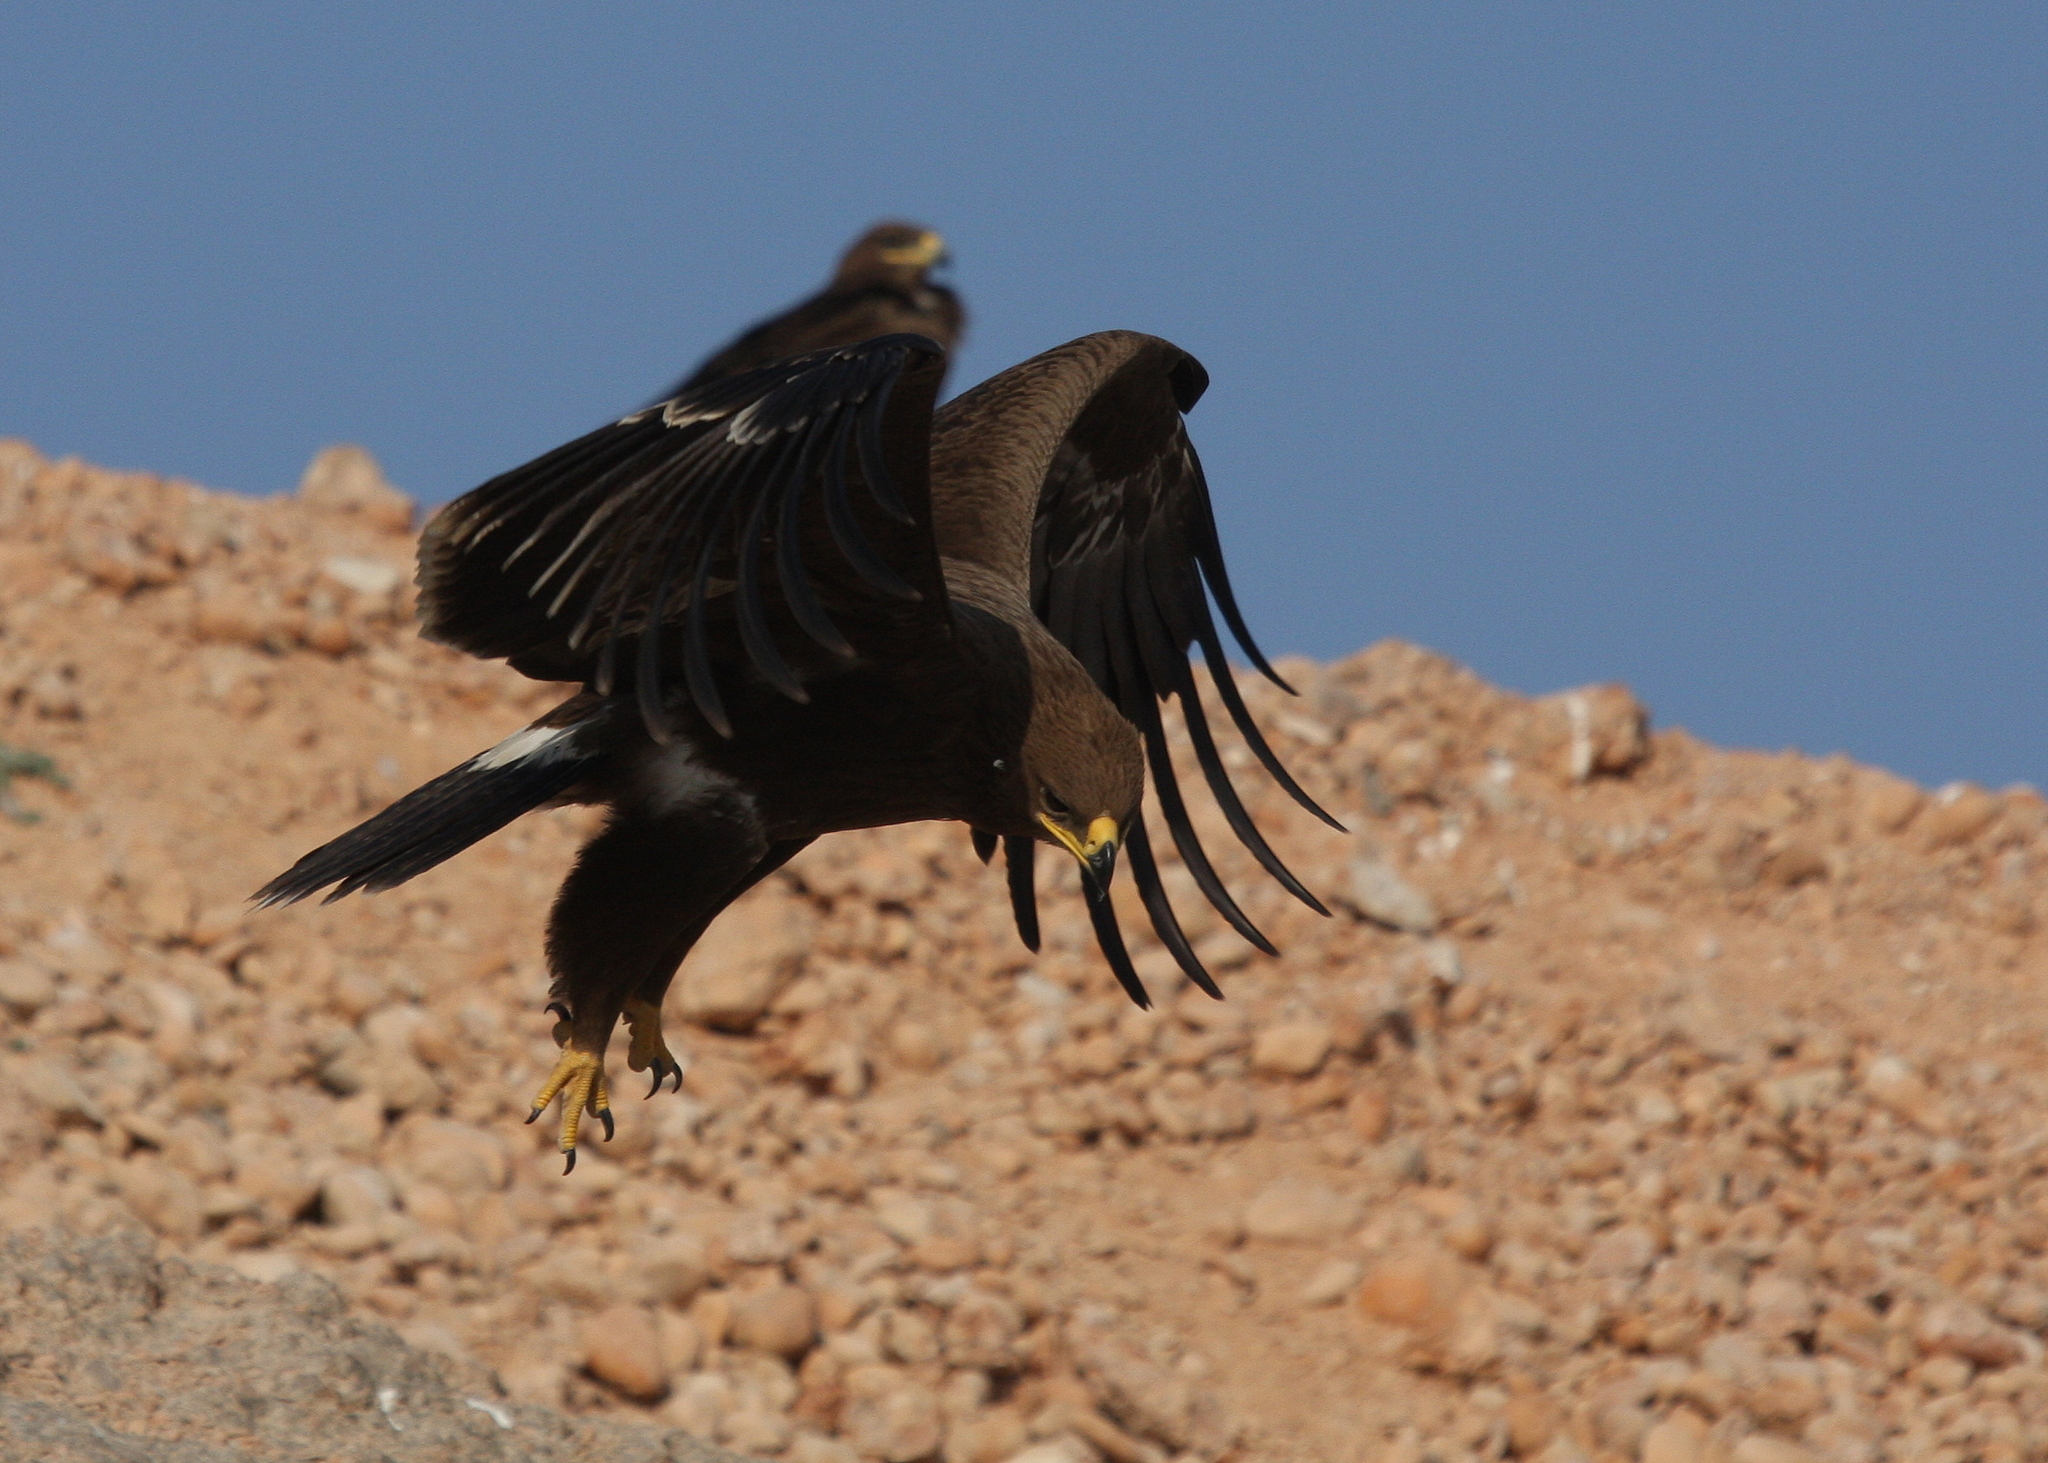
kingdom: Animalia
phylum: Chordata
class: Aves
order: Accipitriformes
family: Accipitridae
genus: Aquila
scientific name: Aquila nipalensis
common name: Steppe eagle
